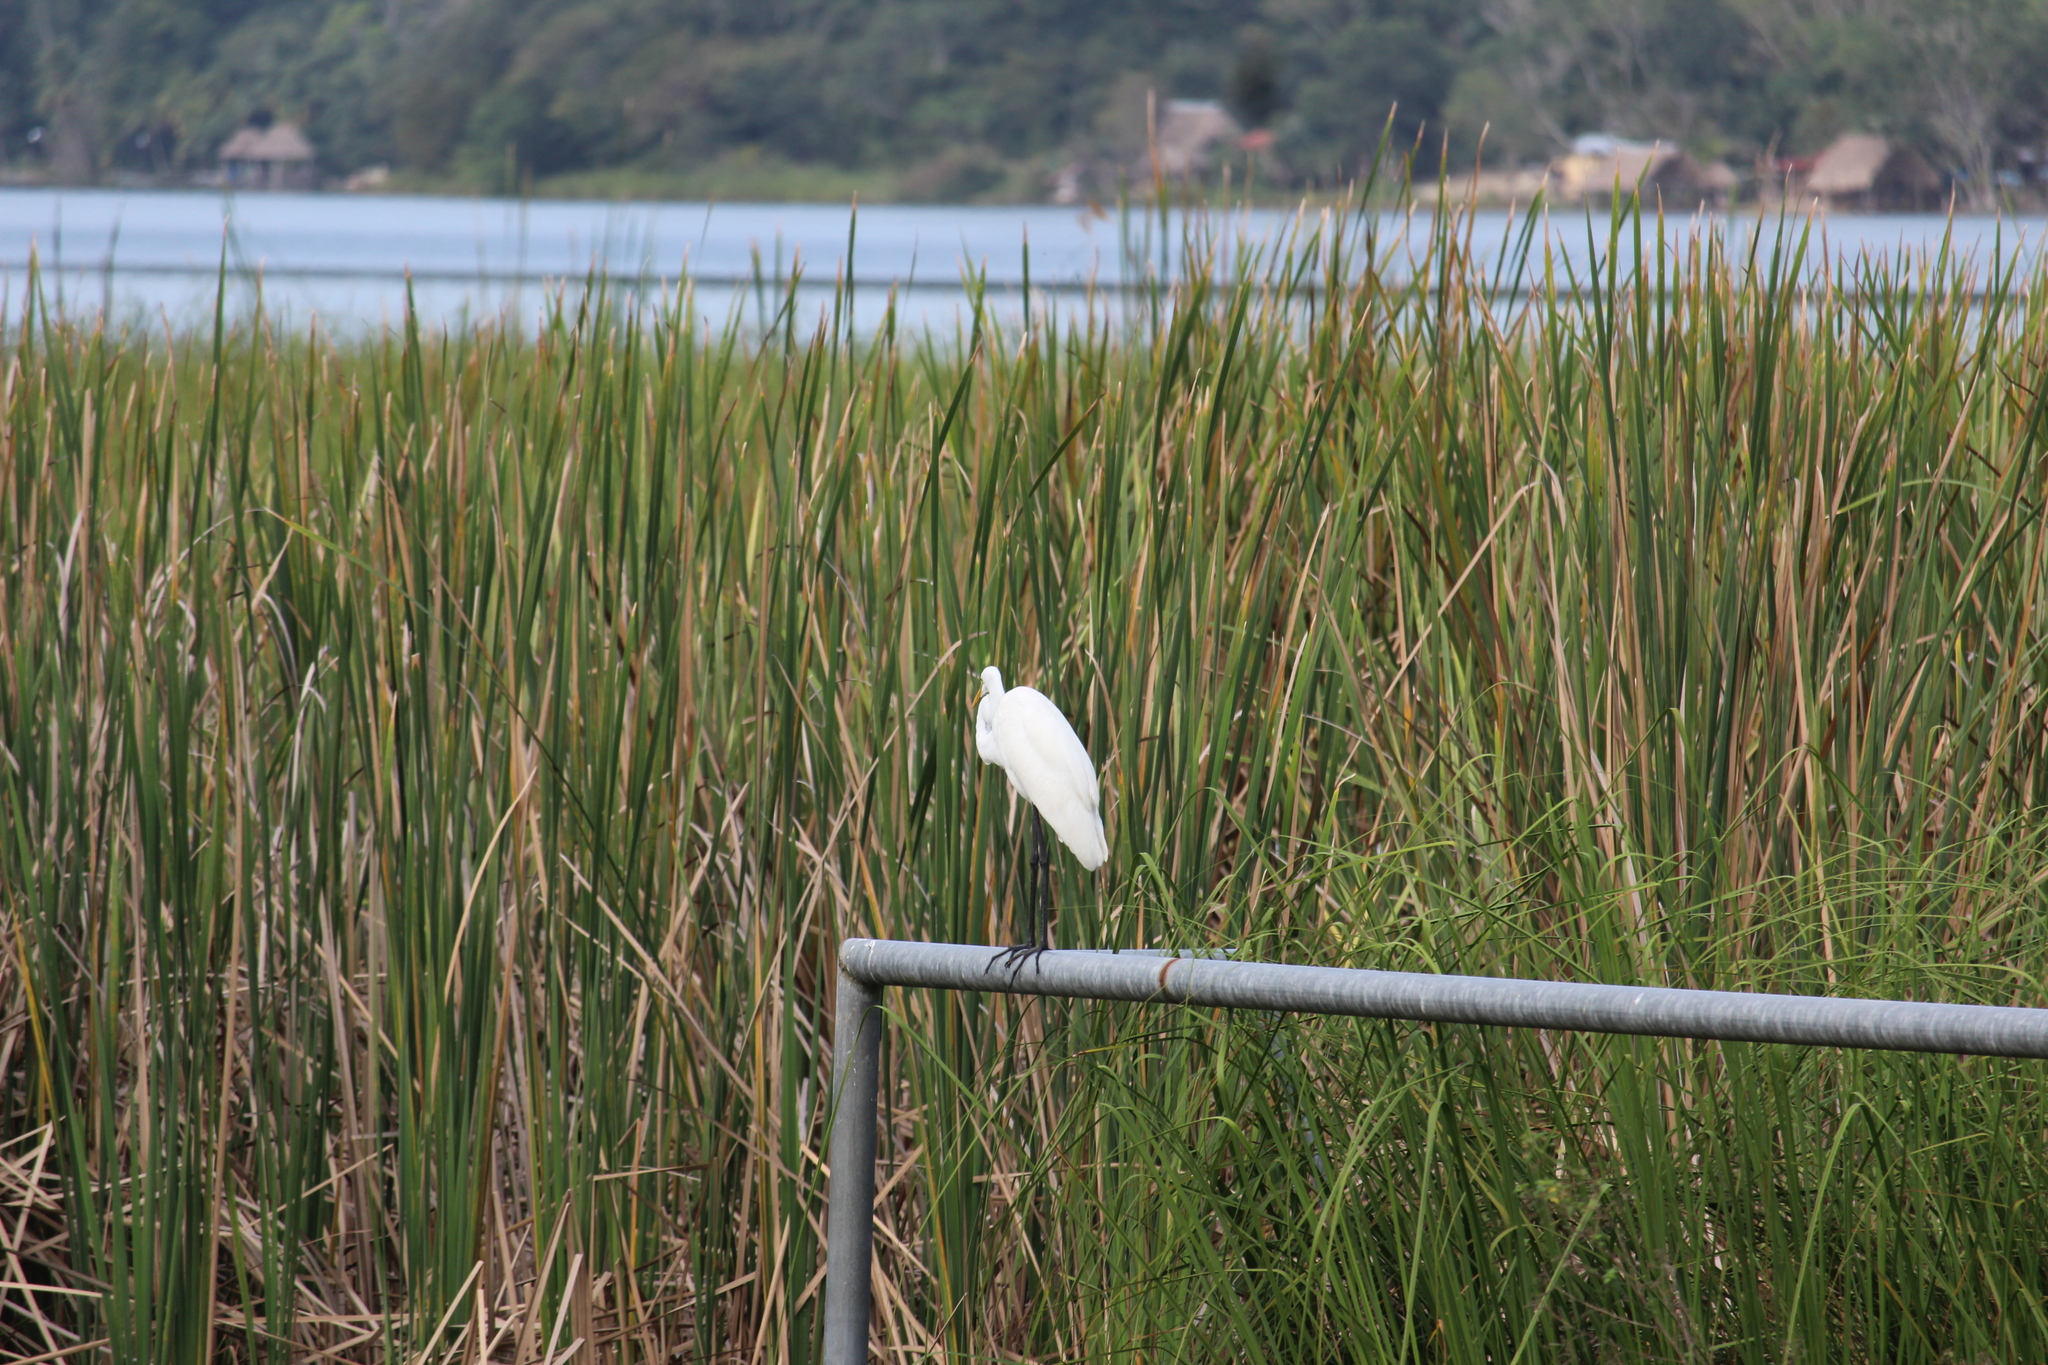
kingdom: Animalia
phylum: Chordata
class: Aves
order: Pelecaniformes
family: Ardeidae
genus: Ardea
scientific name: Ardea alba
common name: Great egret
